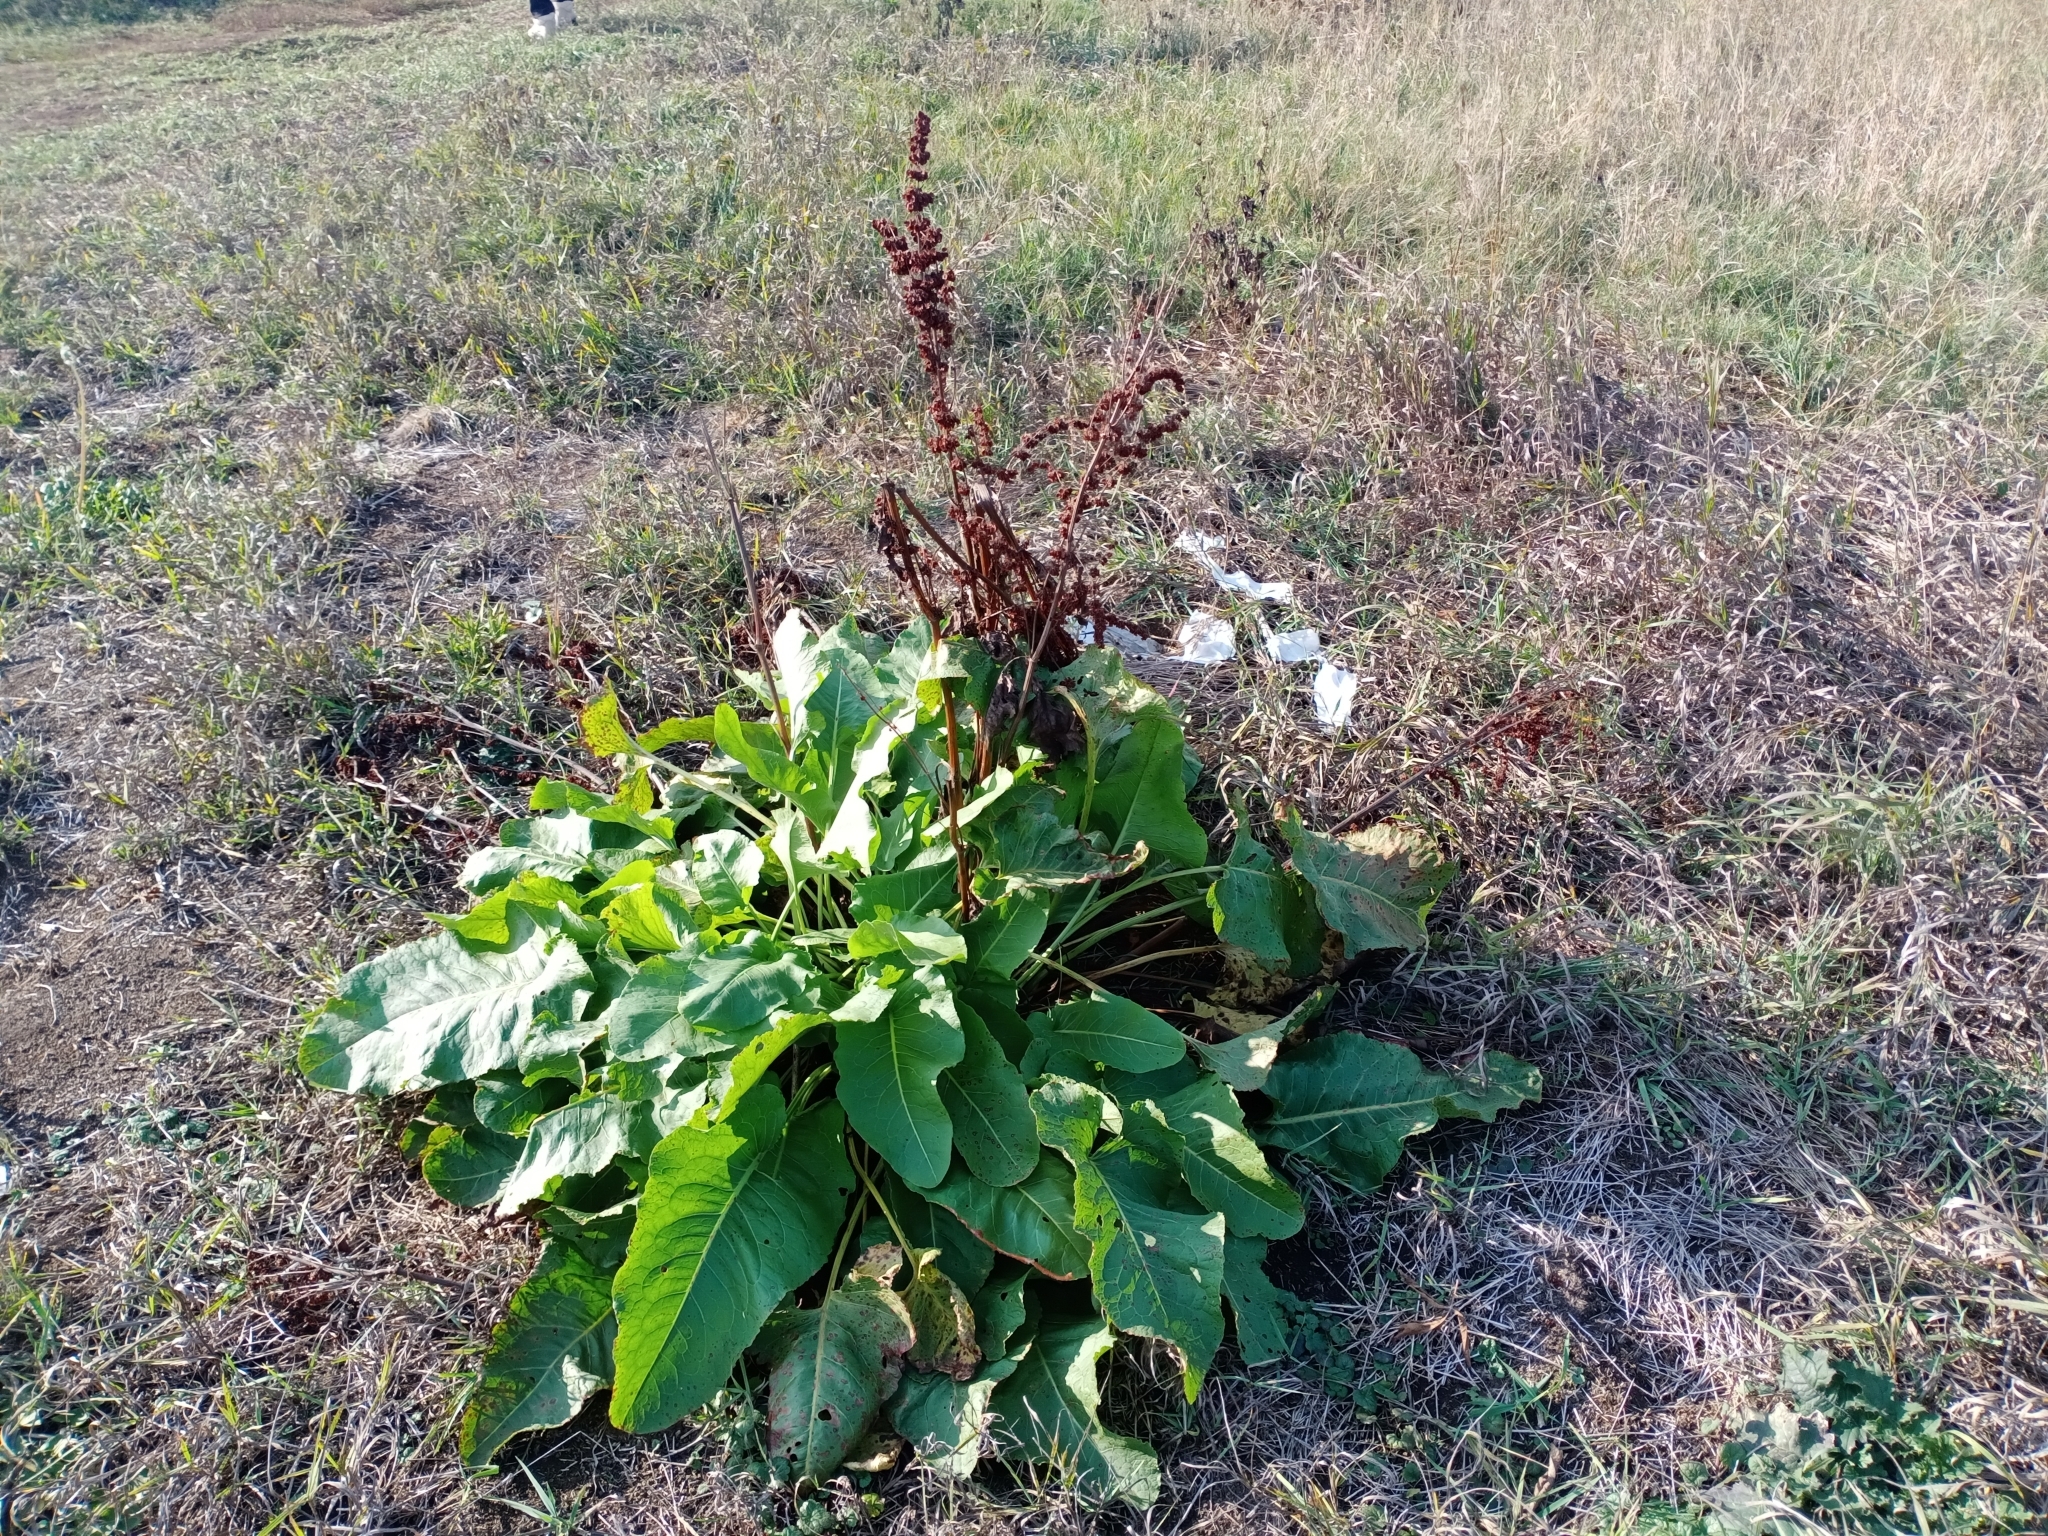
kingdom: Plantae
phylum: Tracheophyta
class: Magnoliopsida
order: Caryophyllales
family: Polygonaceae
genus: Rumex
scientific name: Rumex confertus
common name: Russian dock
